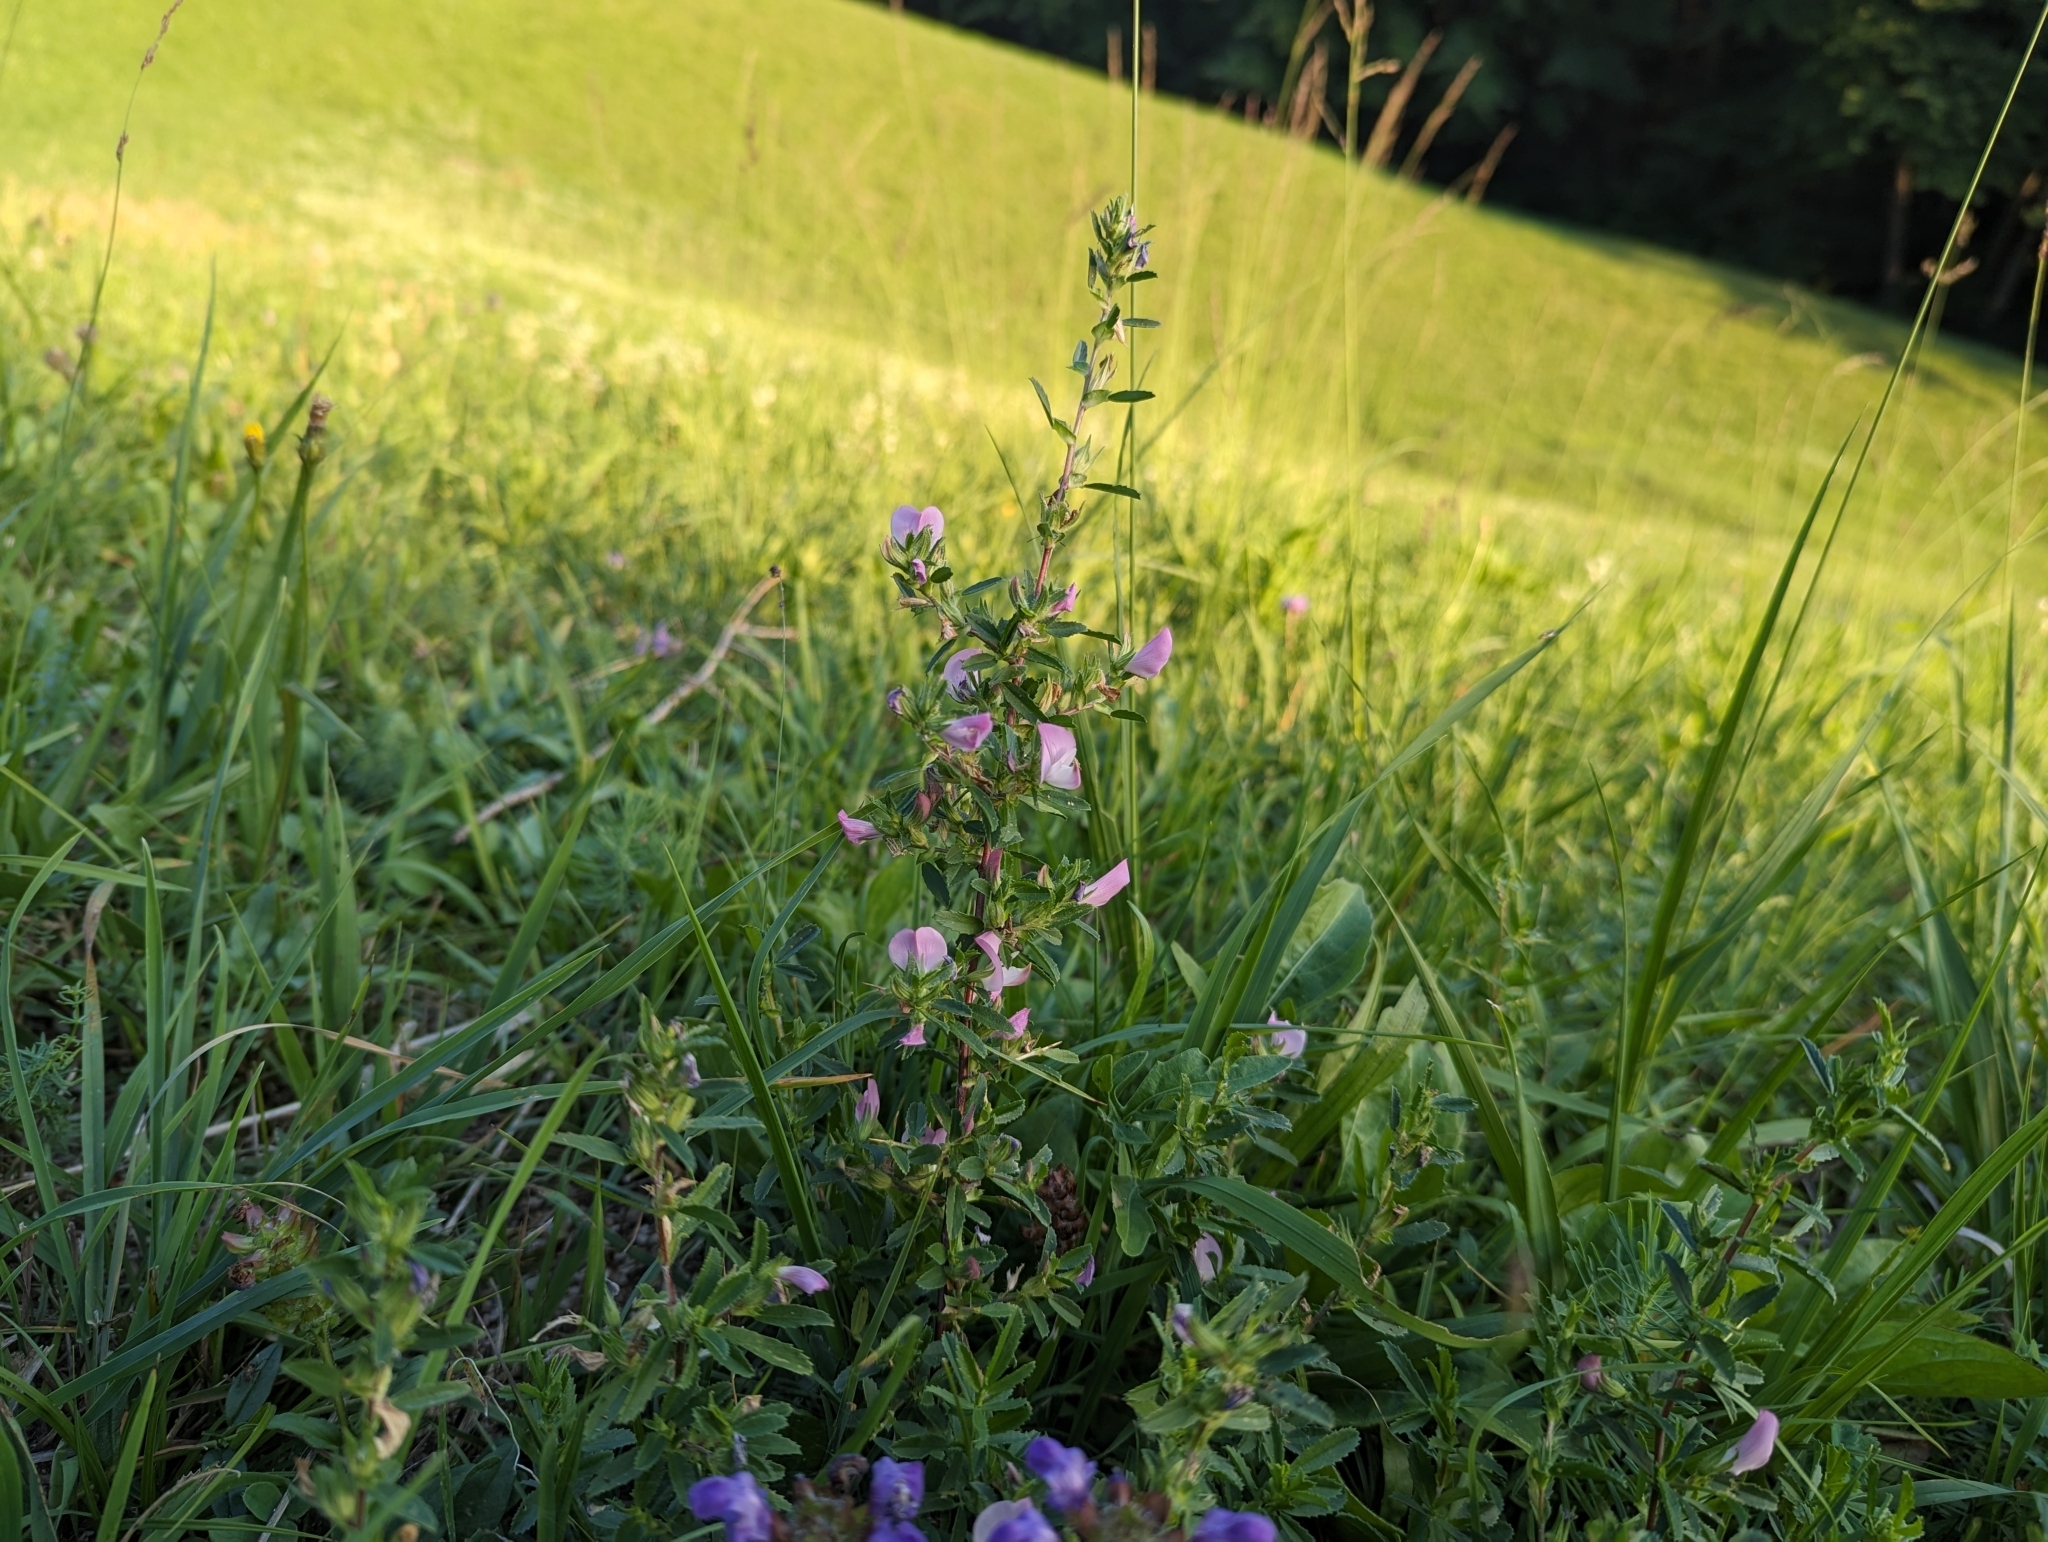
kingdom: Plantae
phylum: Tracheophyta
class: Magnoliopsida
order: Fabales
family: Fabaceae
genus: Ononis
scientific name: Ononis spinosa
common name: Spiny restharrow
